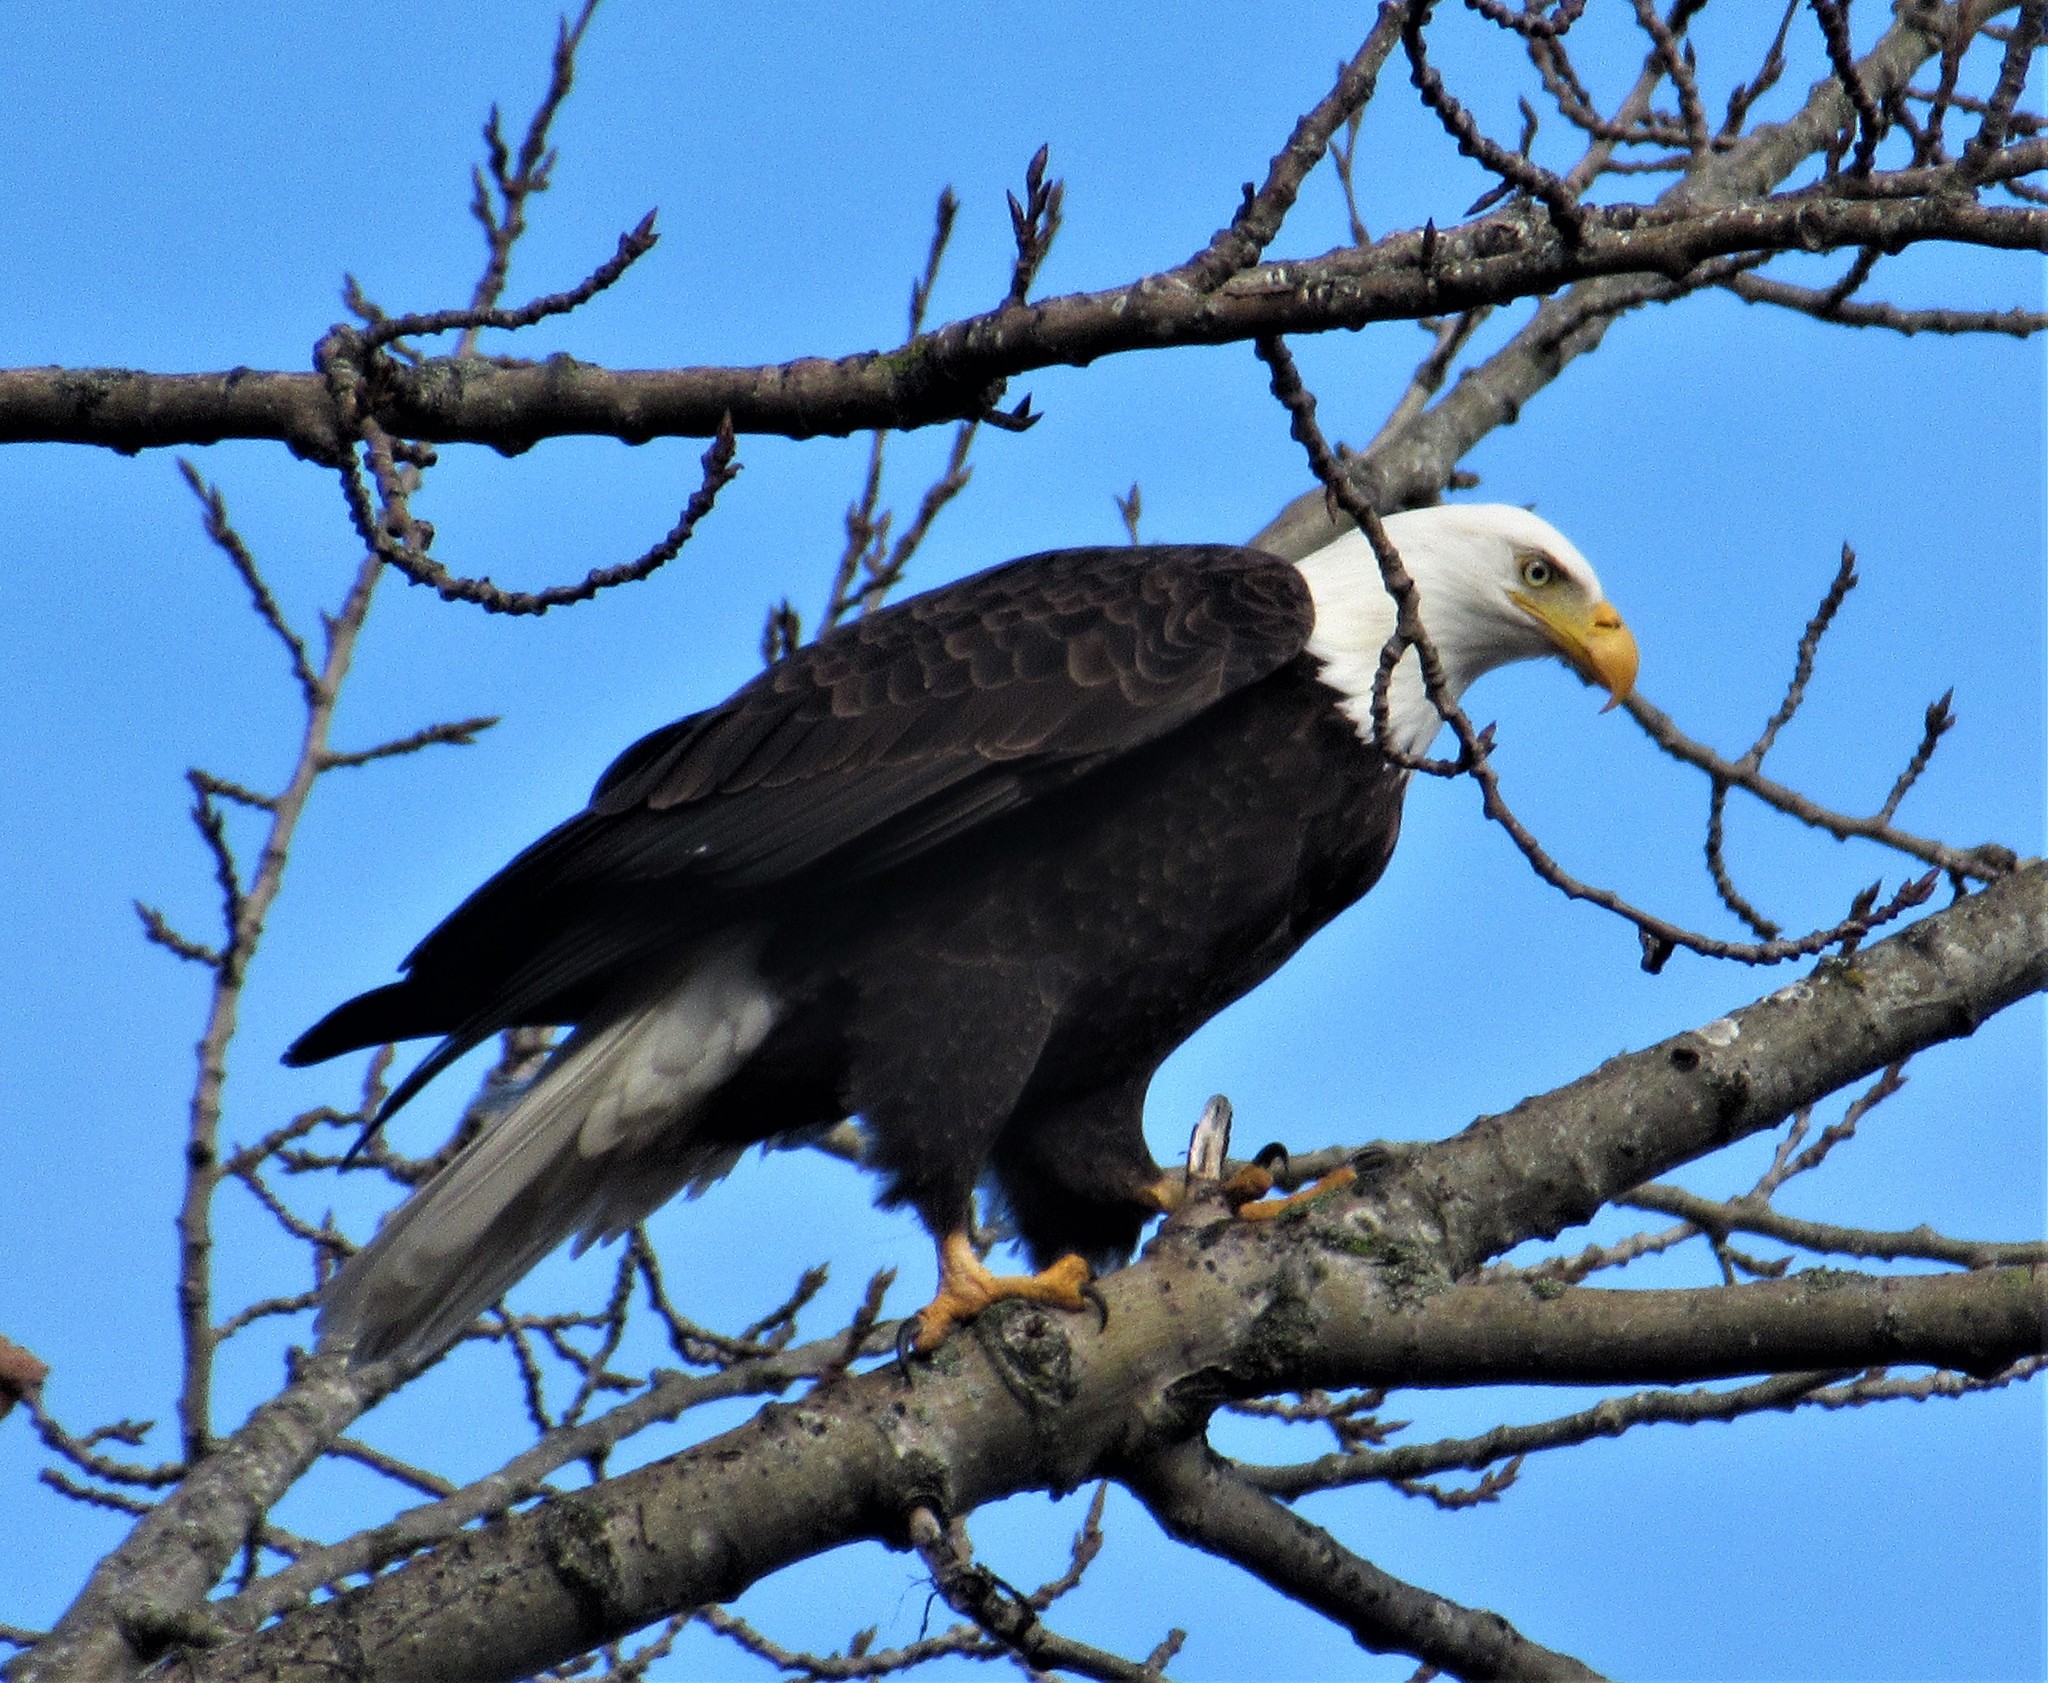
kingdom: Animalia
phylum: Chordata
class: Aves
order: Accipitriformes
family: Accipitridae
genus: Haliaeetus
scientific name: Haliaeetus leucocephalus
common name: Bald eagle
